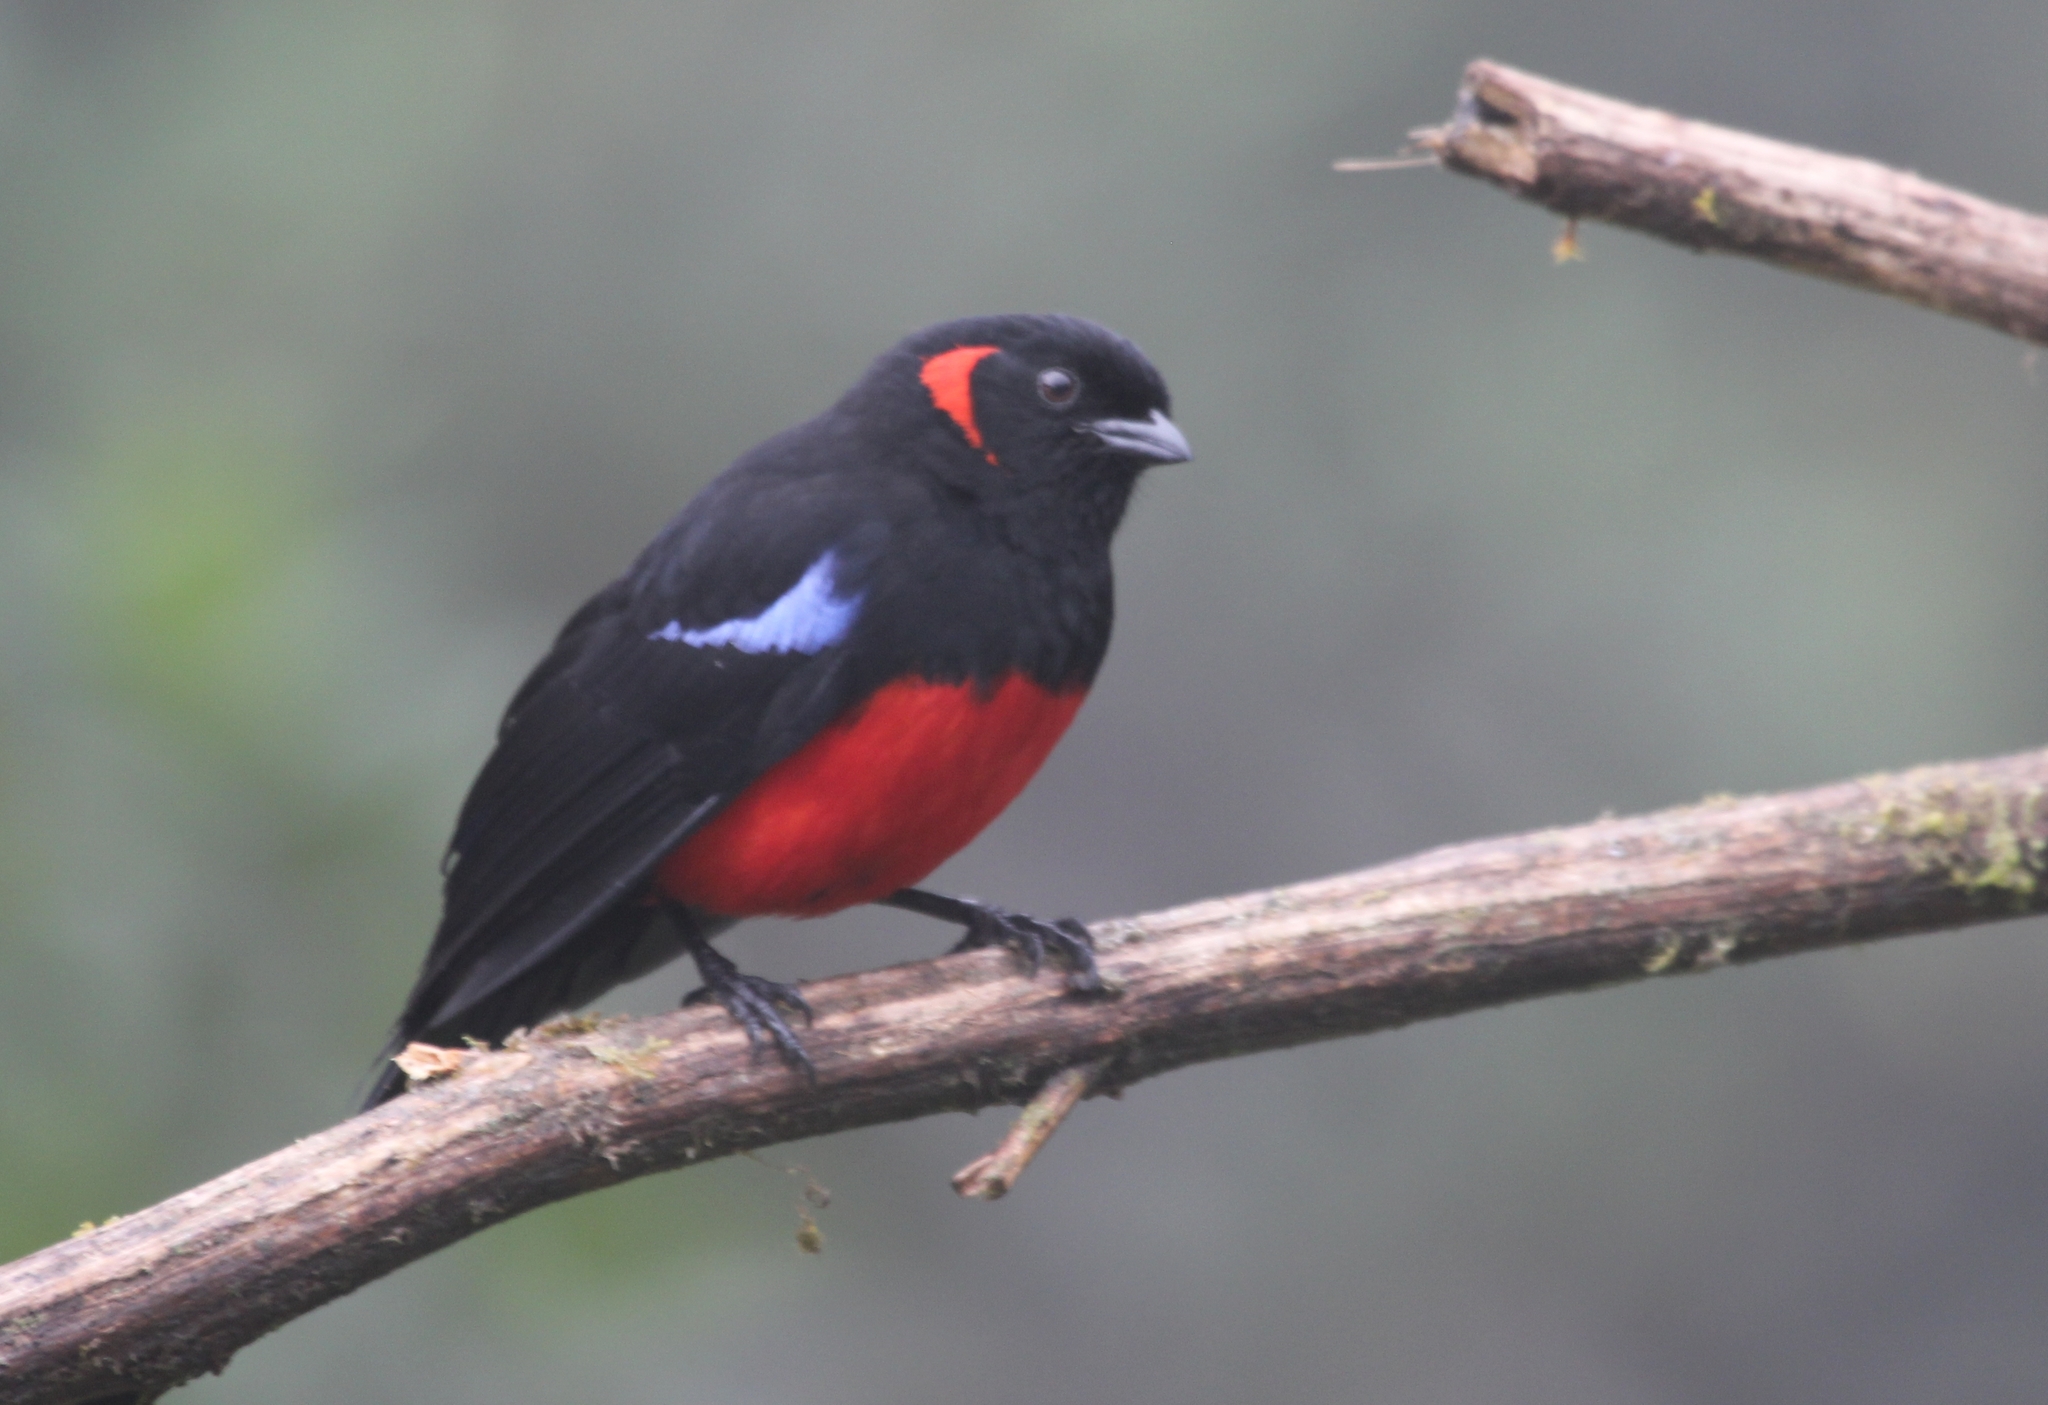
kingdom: Animalia
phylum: Chordata
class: Aves
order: Passeriformes
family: Thraupidae
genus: Anisognathus
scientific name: Anisognathus igniventris
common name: Scarlet-bellied mountain tanager
